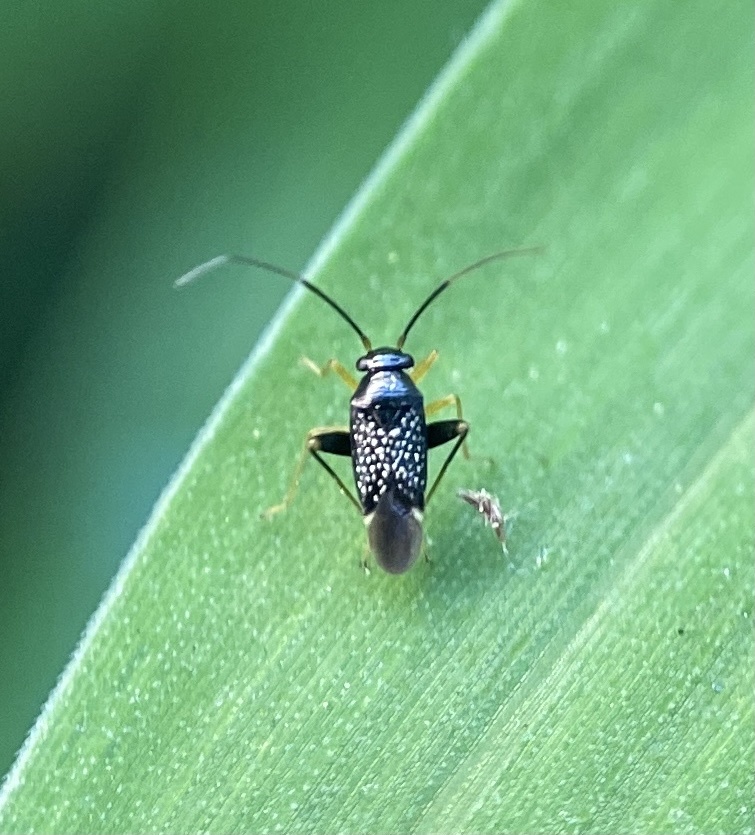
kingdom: Animalia
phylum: Arthropoda
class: Insecta
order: Hemiptera
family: Miridae
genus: Microtechnites
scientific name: Microtechnites bractatus
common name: Garden fleahopper
